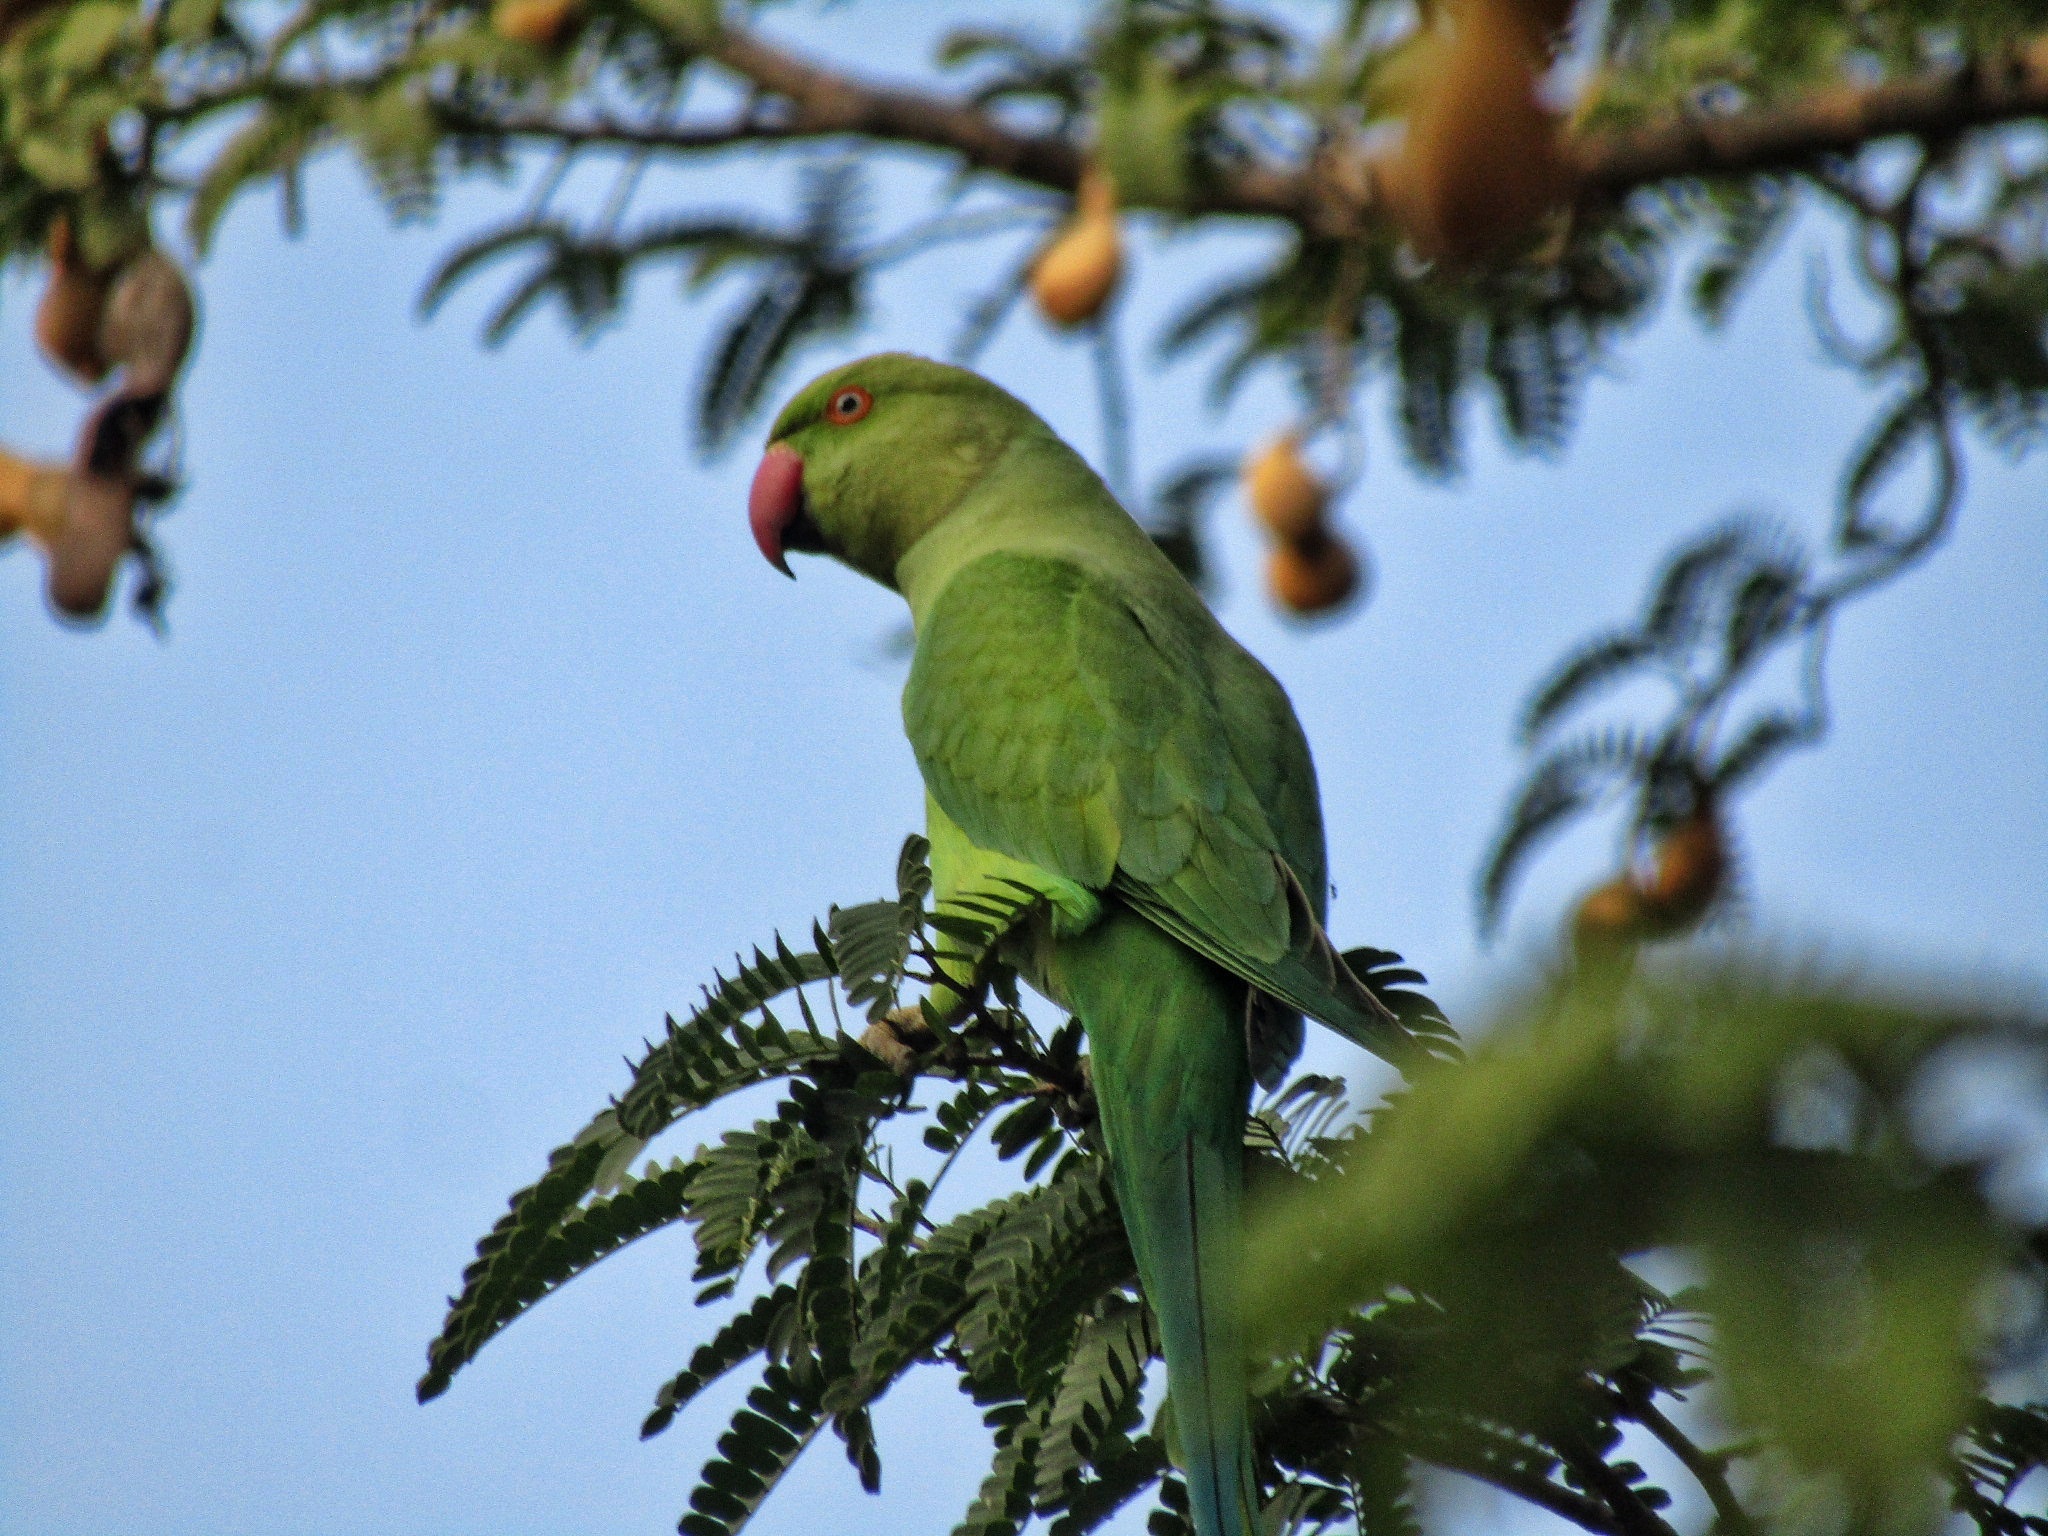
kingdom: Animalia
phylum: Chordata
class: Aves
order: Psittaciformes
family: Psittacidae
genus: Psittacula
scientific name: Psittacula krameri
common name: Rose-ringed parakeet
